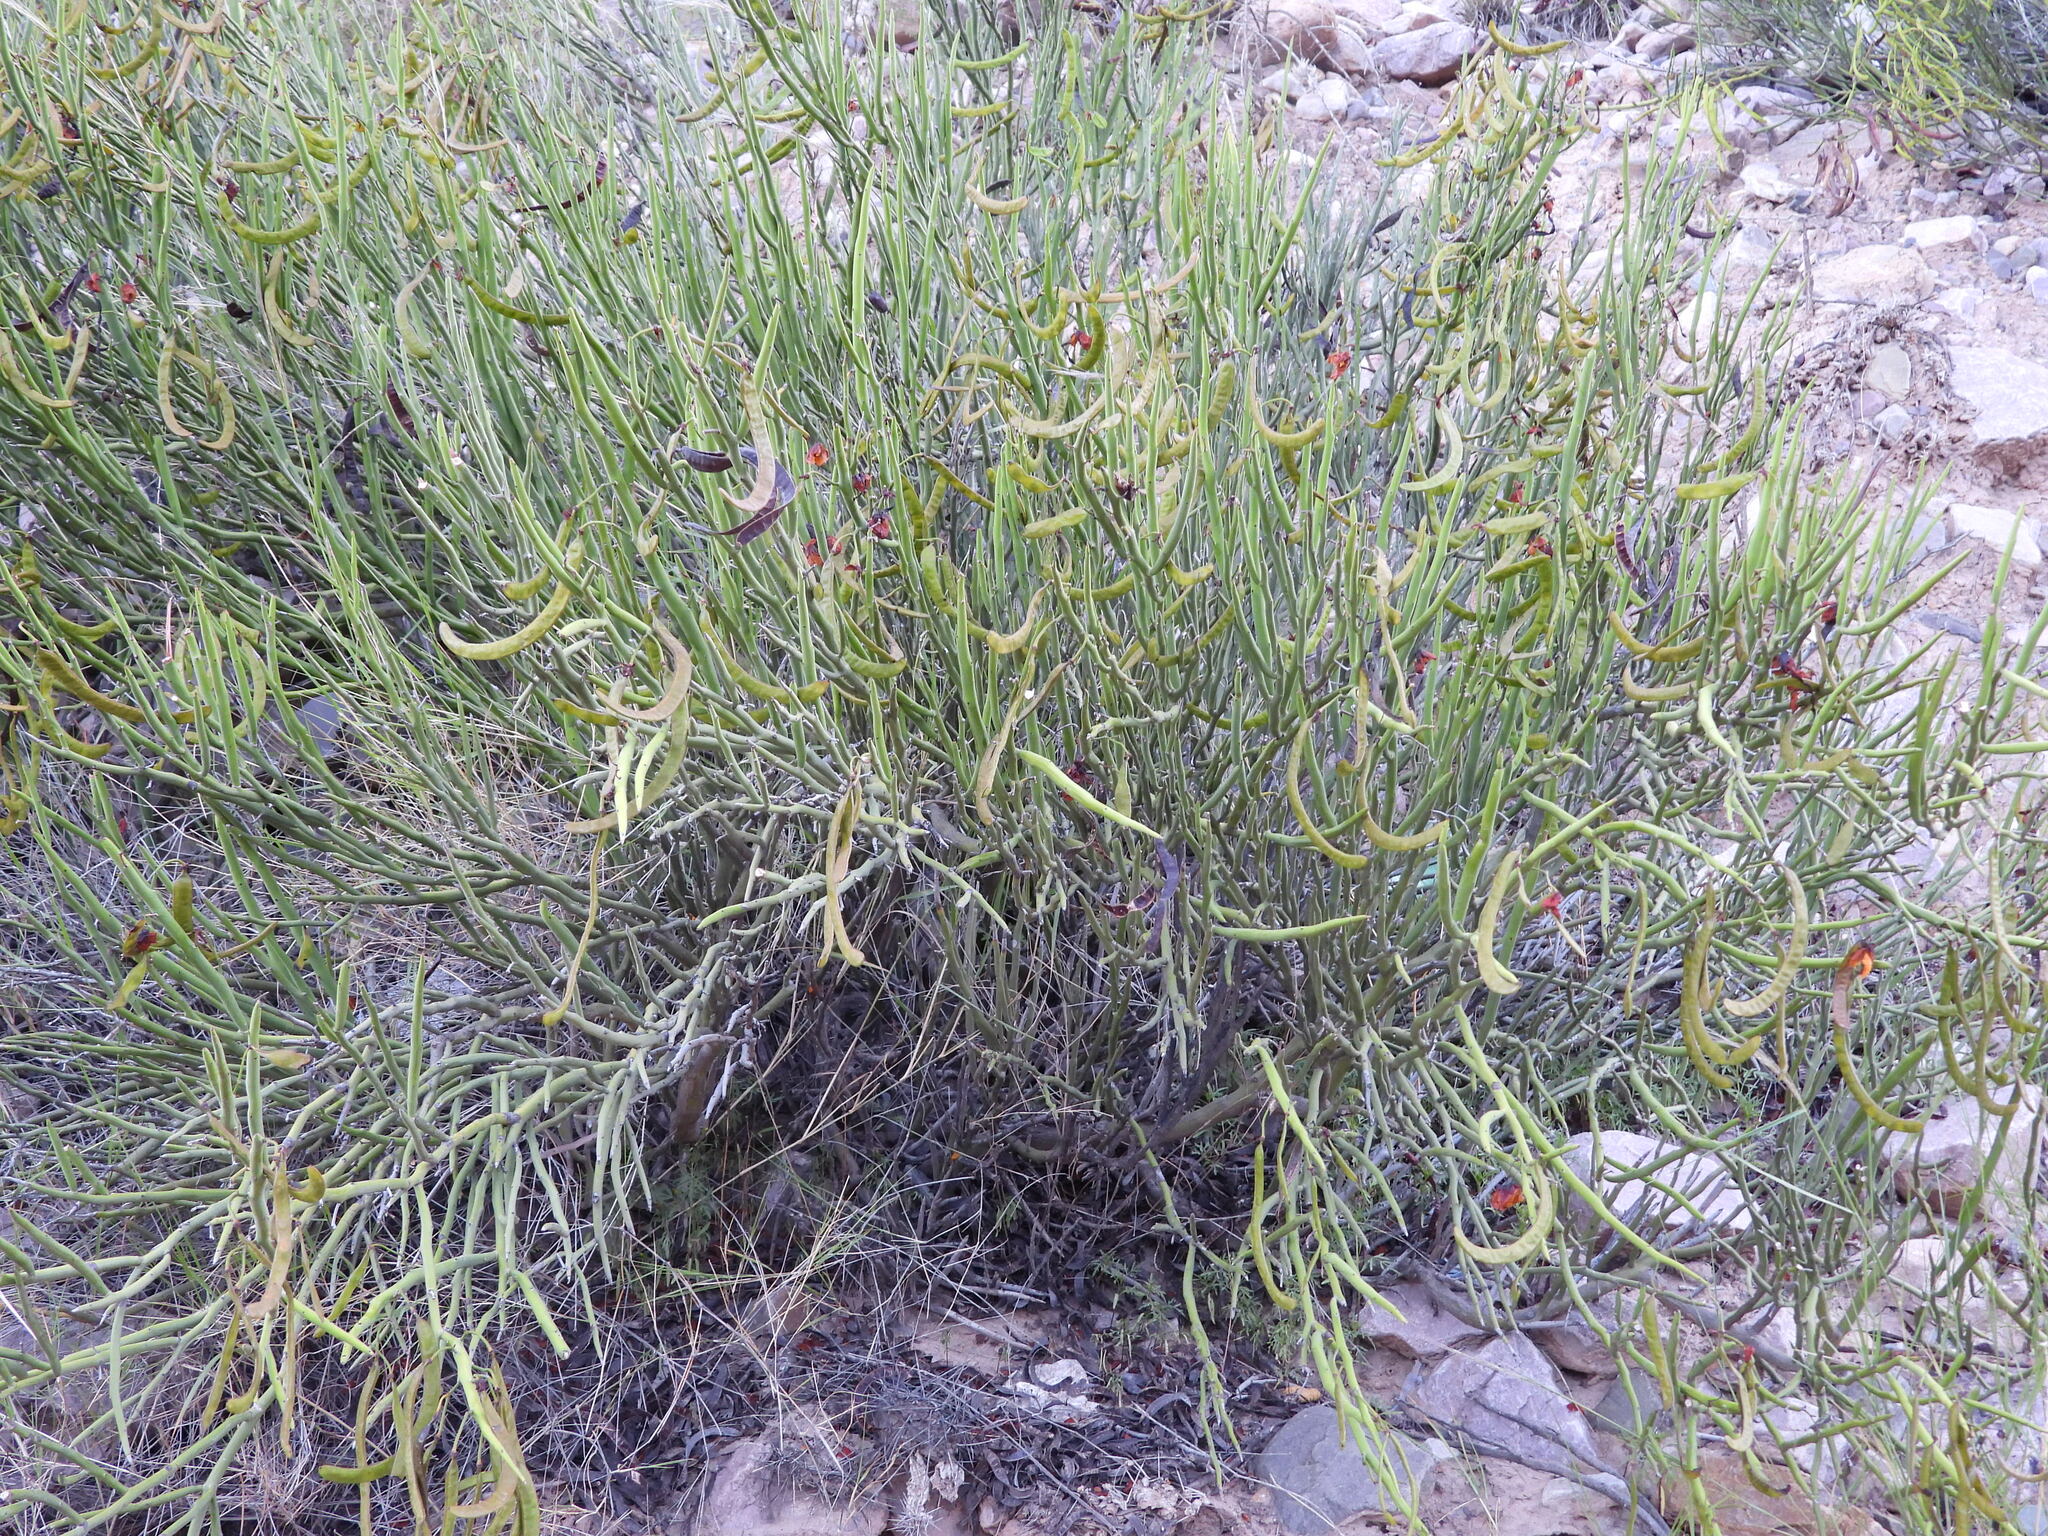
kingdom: Plantae
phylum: Tracheophyta
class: Magnoliopsida
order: Fabales
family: Fabaceae
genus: Senna
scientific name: Senna crassiramea
